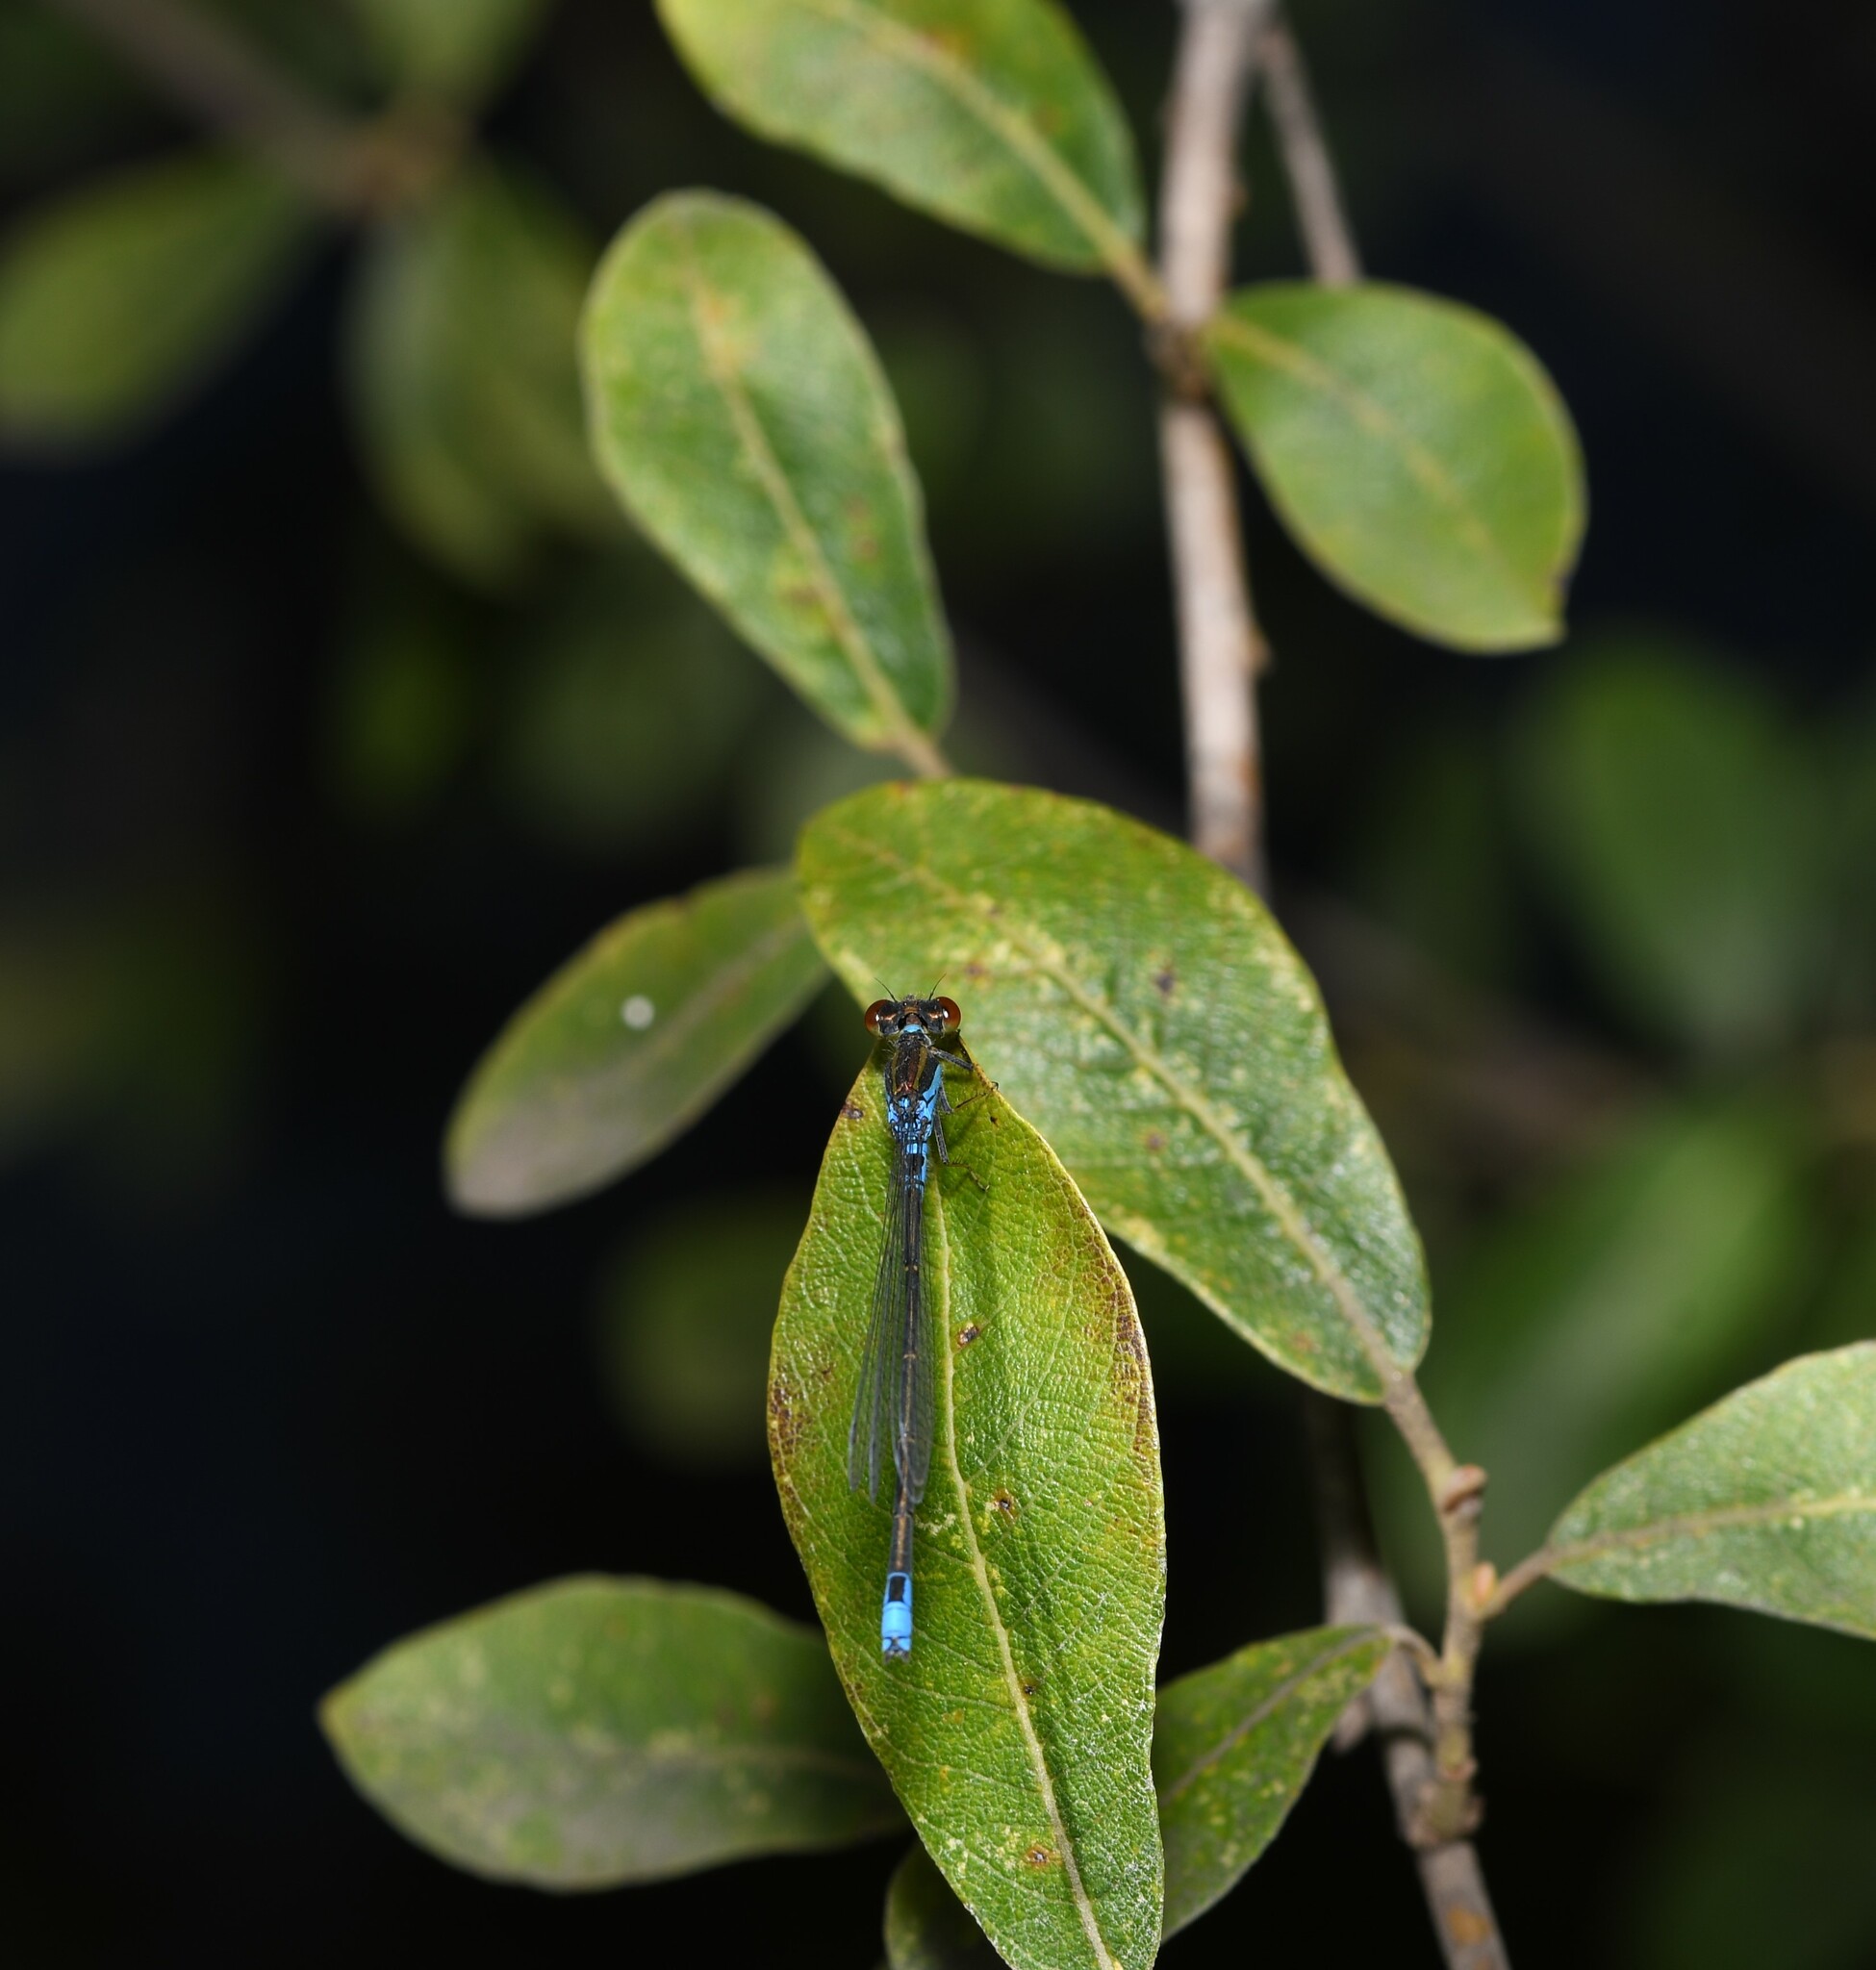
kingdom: Animalia
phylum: Arthropoda
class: Insecta
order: Odonata
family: Coenagrionidae
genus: Erythromma
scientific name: Erythromma viridulum
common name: Small red-eyed damselfly
